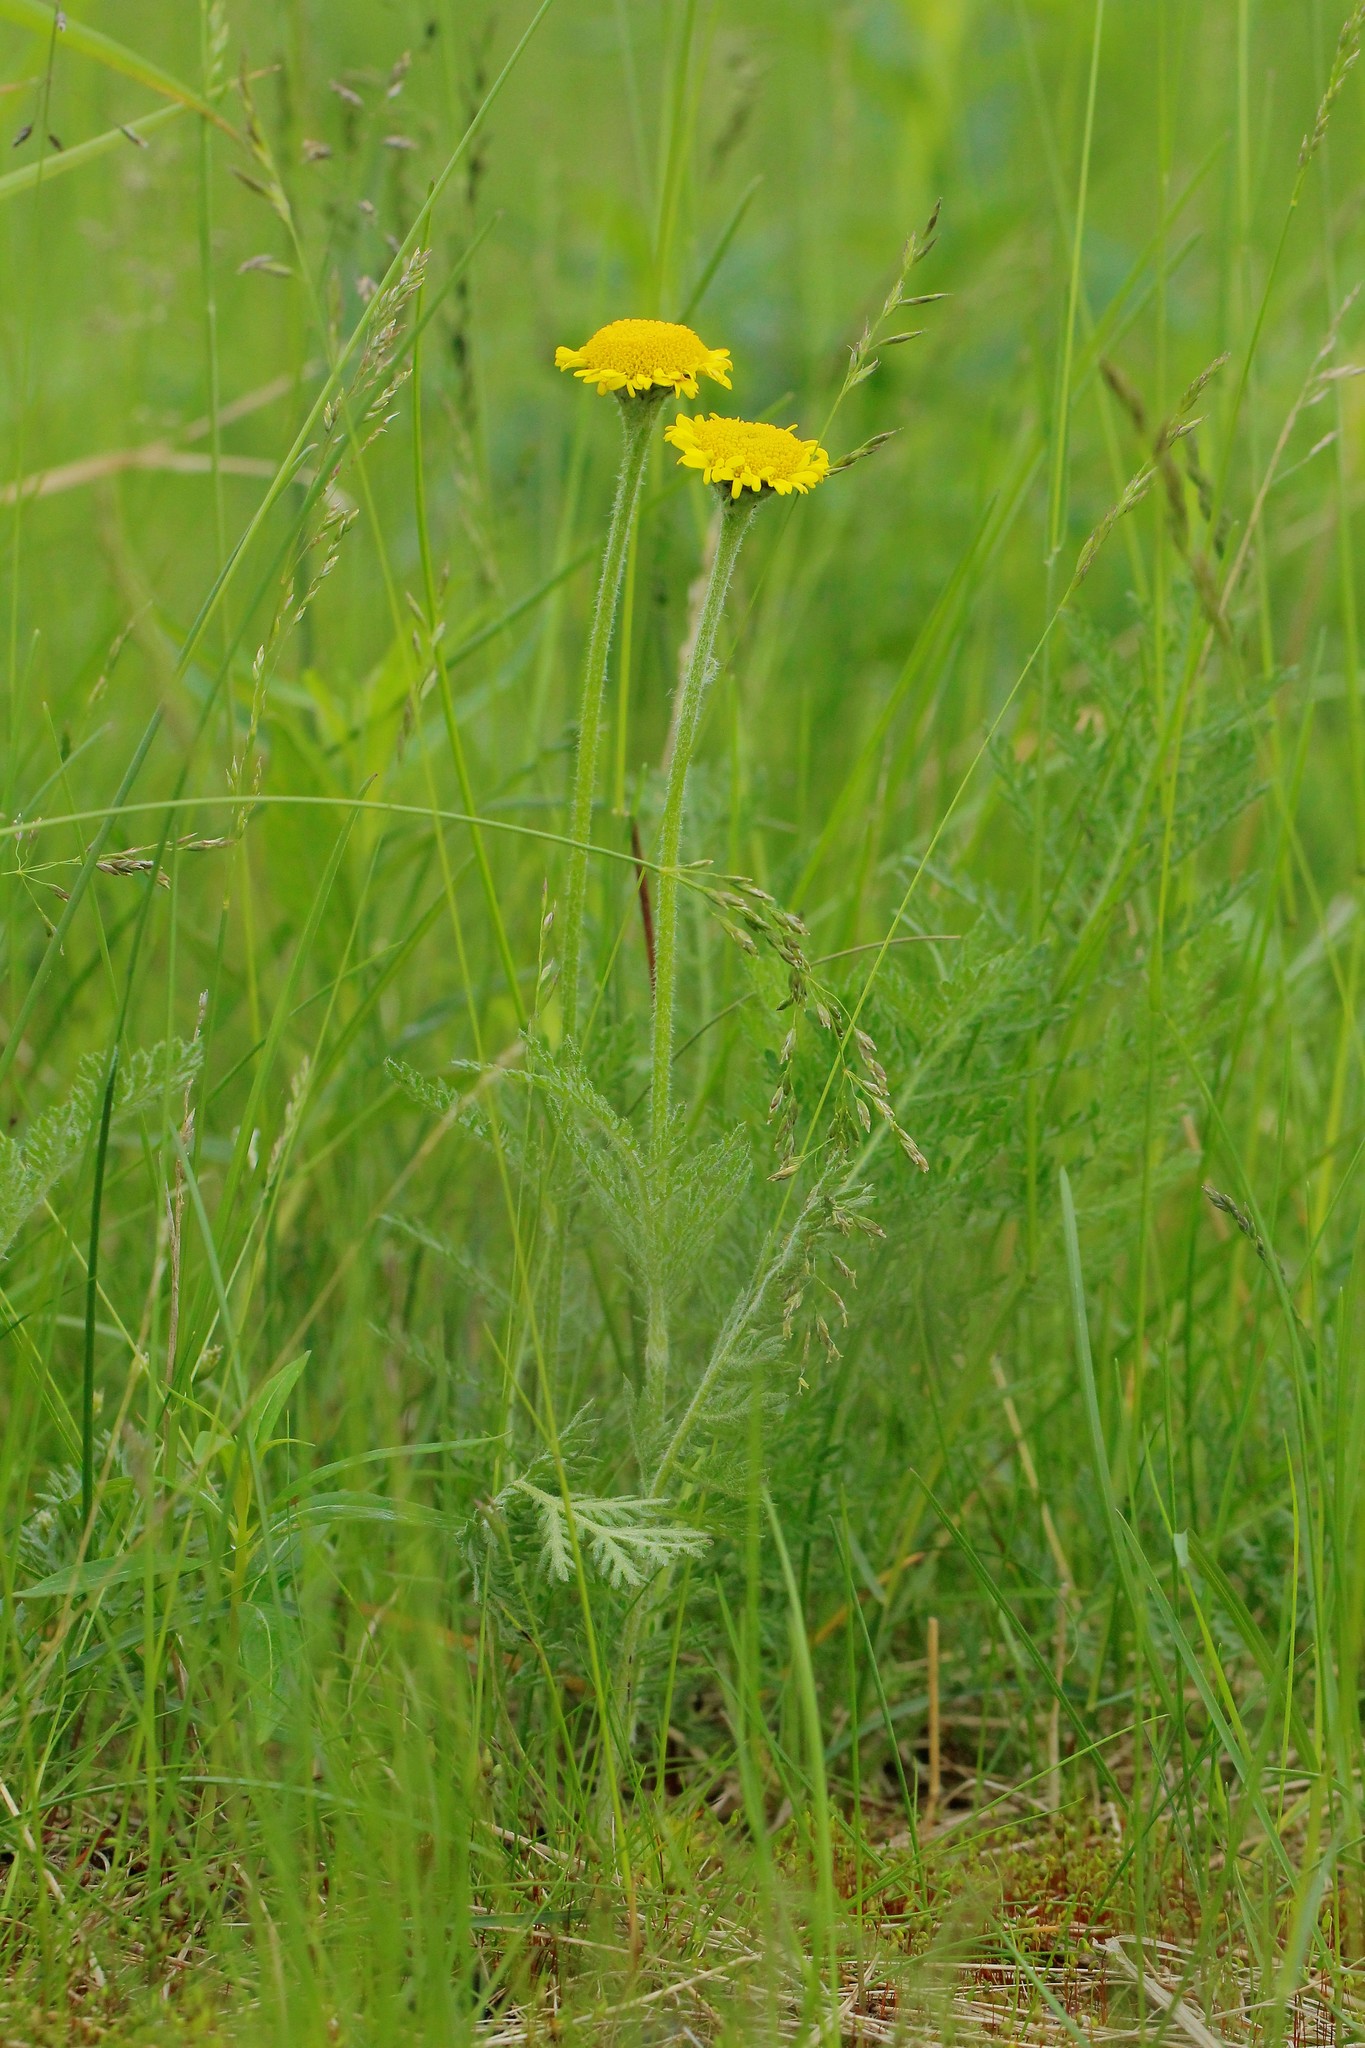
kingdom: Plantae
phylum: Tracheophyta
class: Magnoliopsida
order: Asterales
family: Asteraceae
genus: Tanacetum
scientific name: Tanacetum bipinnatum
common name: Dwarf tansy
